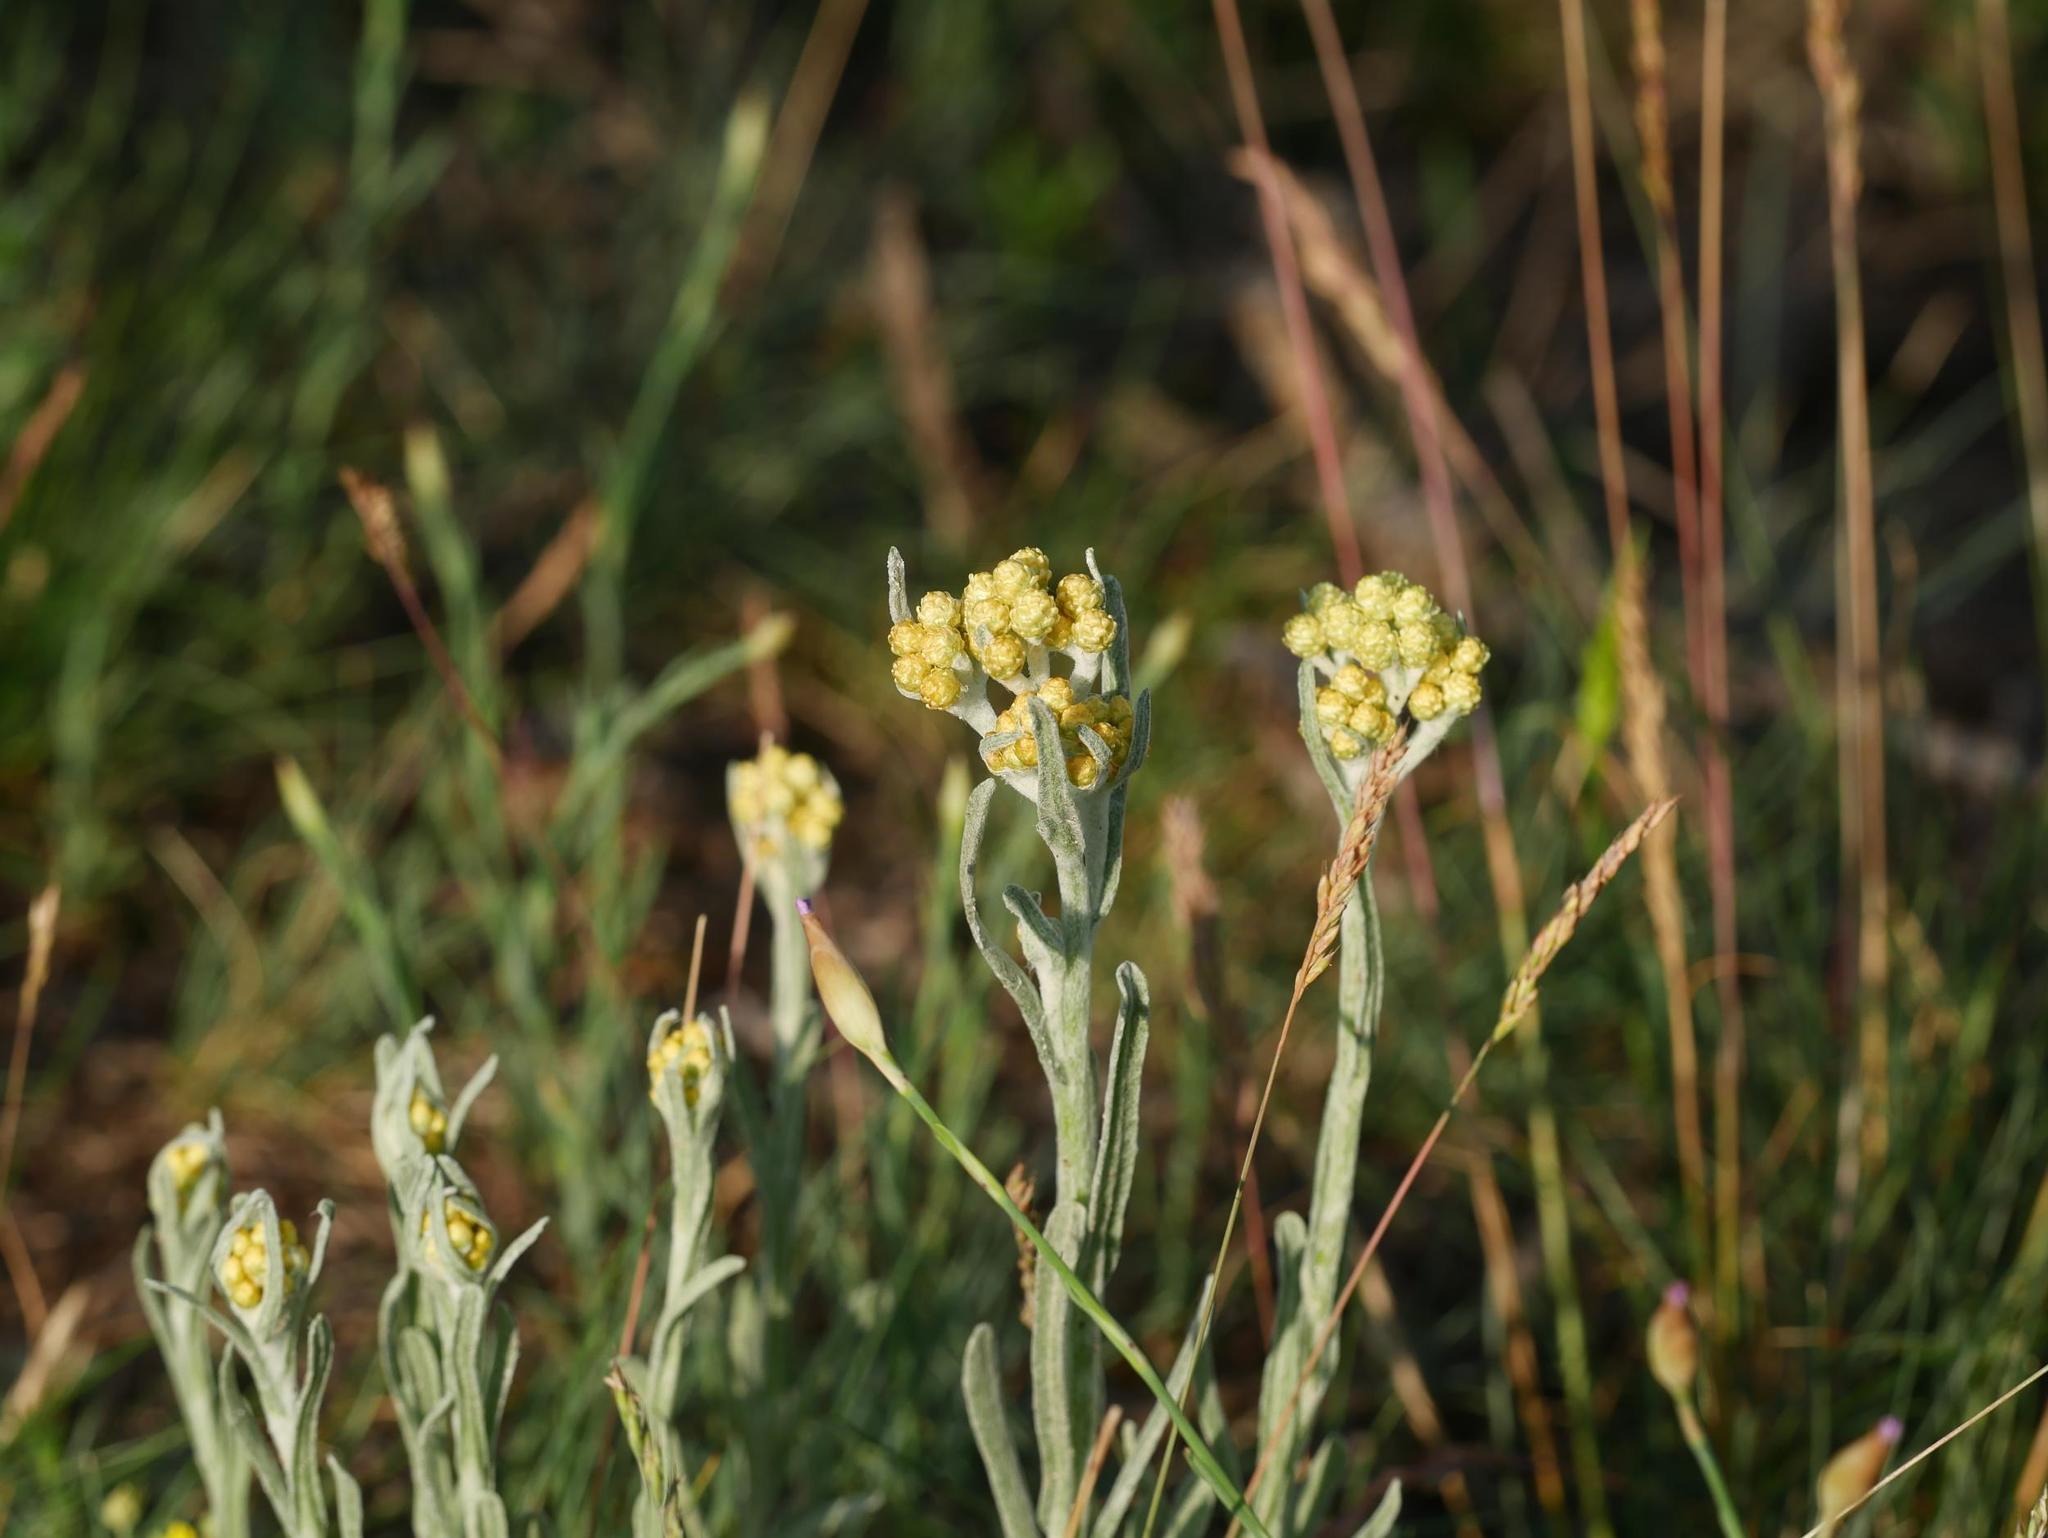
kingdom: Plantae
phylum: Tracheophyta
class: Magnoliopsida
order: Asterales
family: Asteraceae
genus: Helichrysum
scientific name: Helichrysum arenarium
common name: Strawflower
